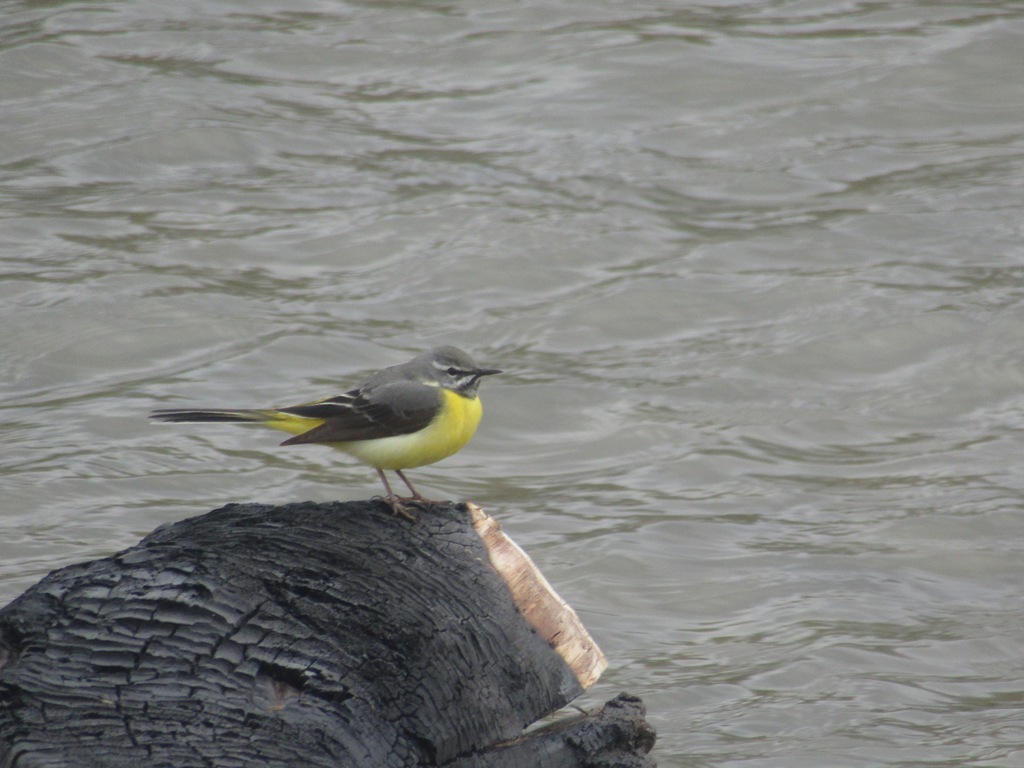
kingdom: Animalia
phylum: Chordata
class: Aves
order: Passeriformes
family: Motacillidae
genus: Motacilla
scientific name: Motacilla cinerea
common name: Grey wagtail
